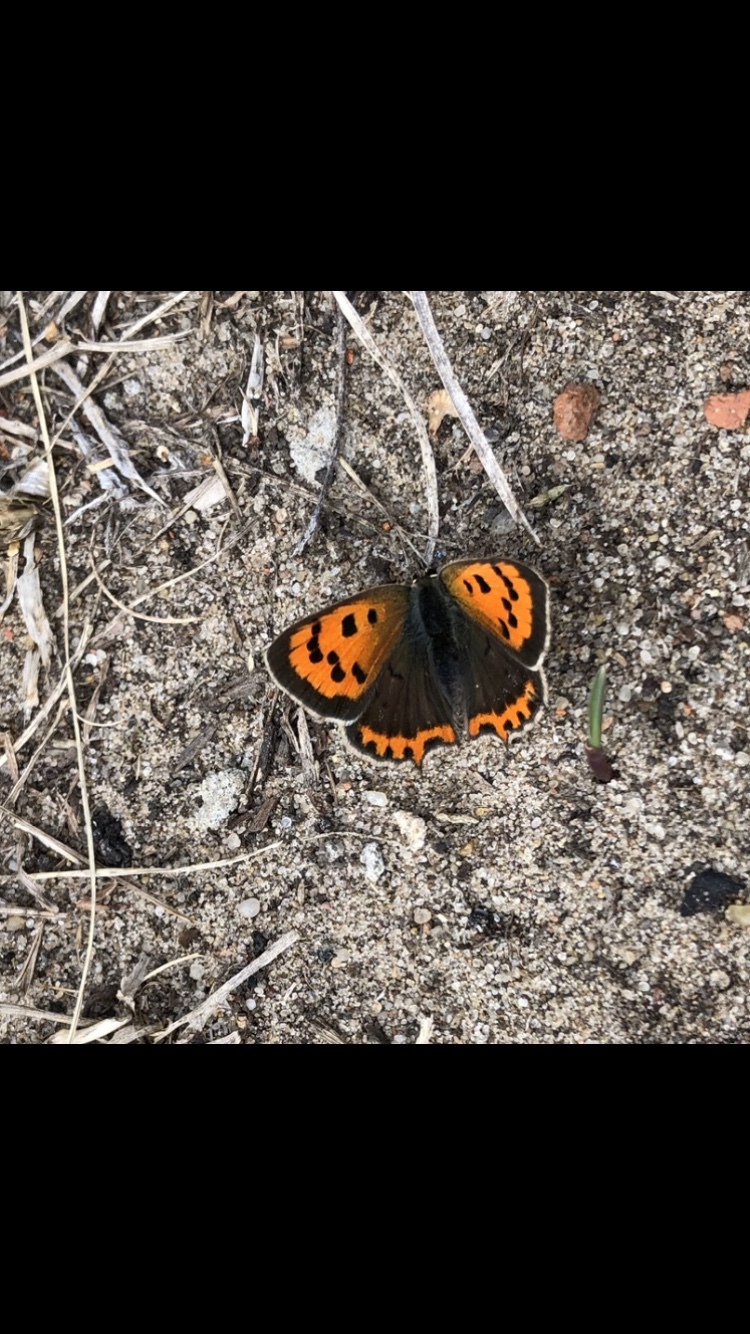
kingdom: Animalia
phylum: Arthropoda
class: Insecta
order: Lepidoptera
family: Lycaenidae
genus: Lycaena
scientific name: Lycaena phlaeas
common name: Small copper
